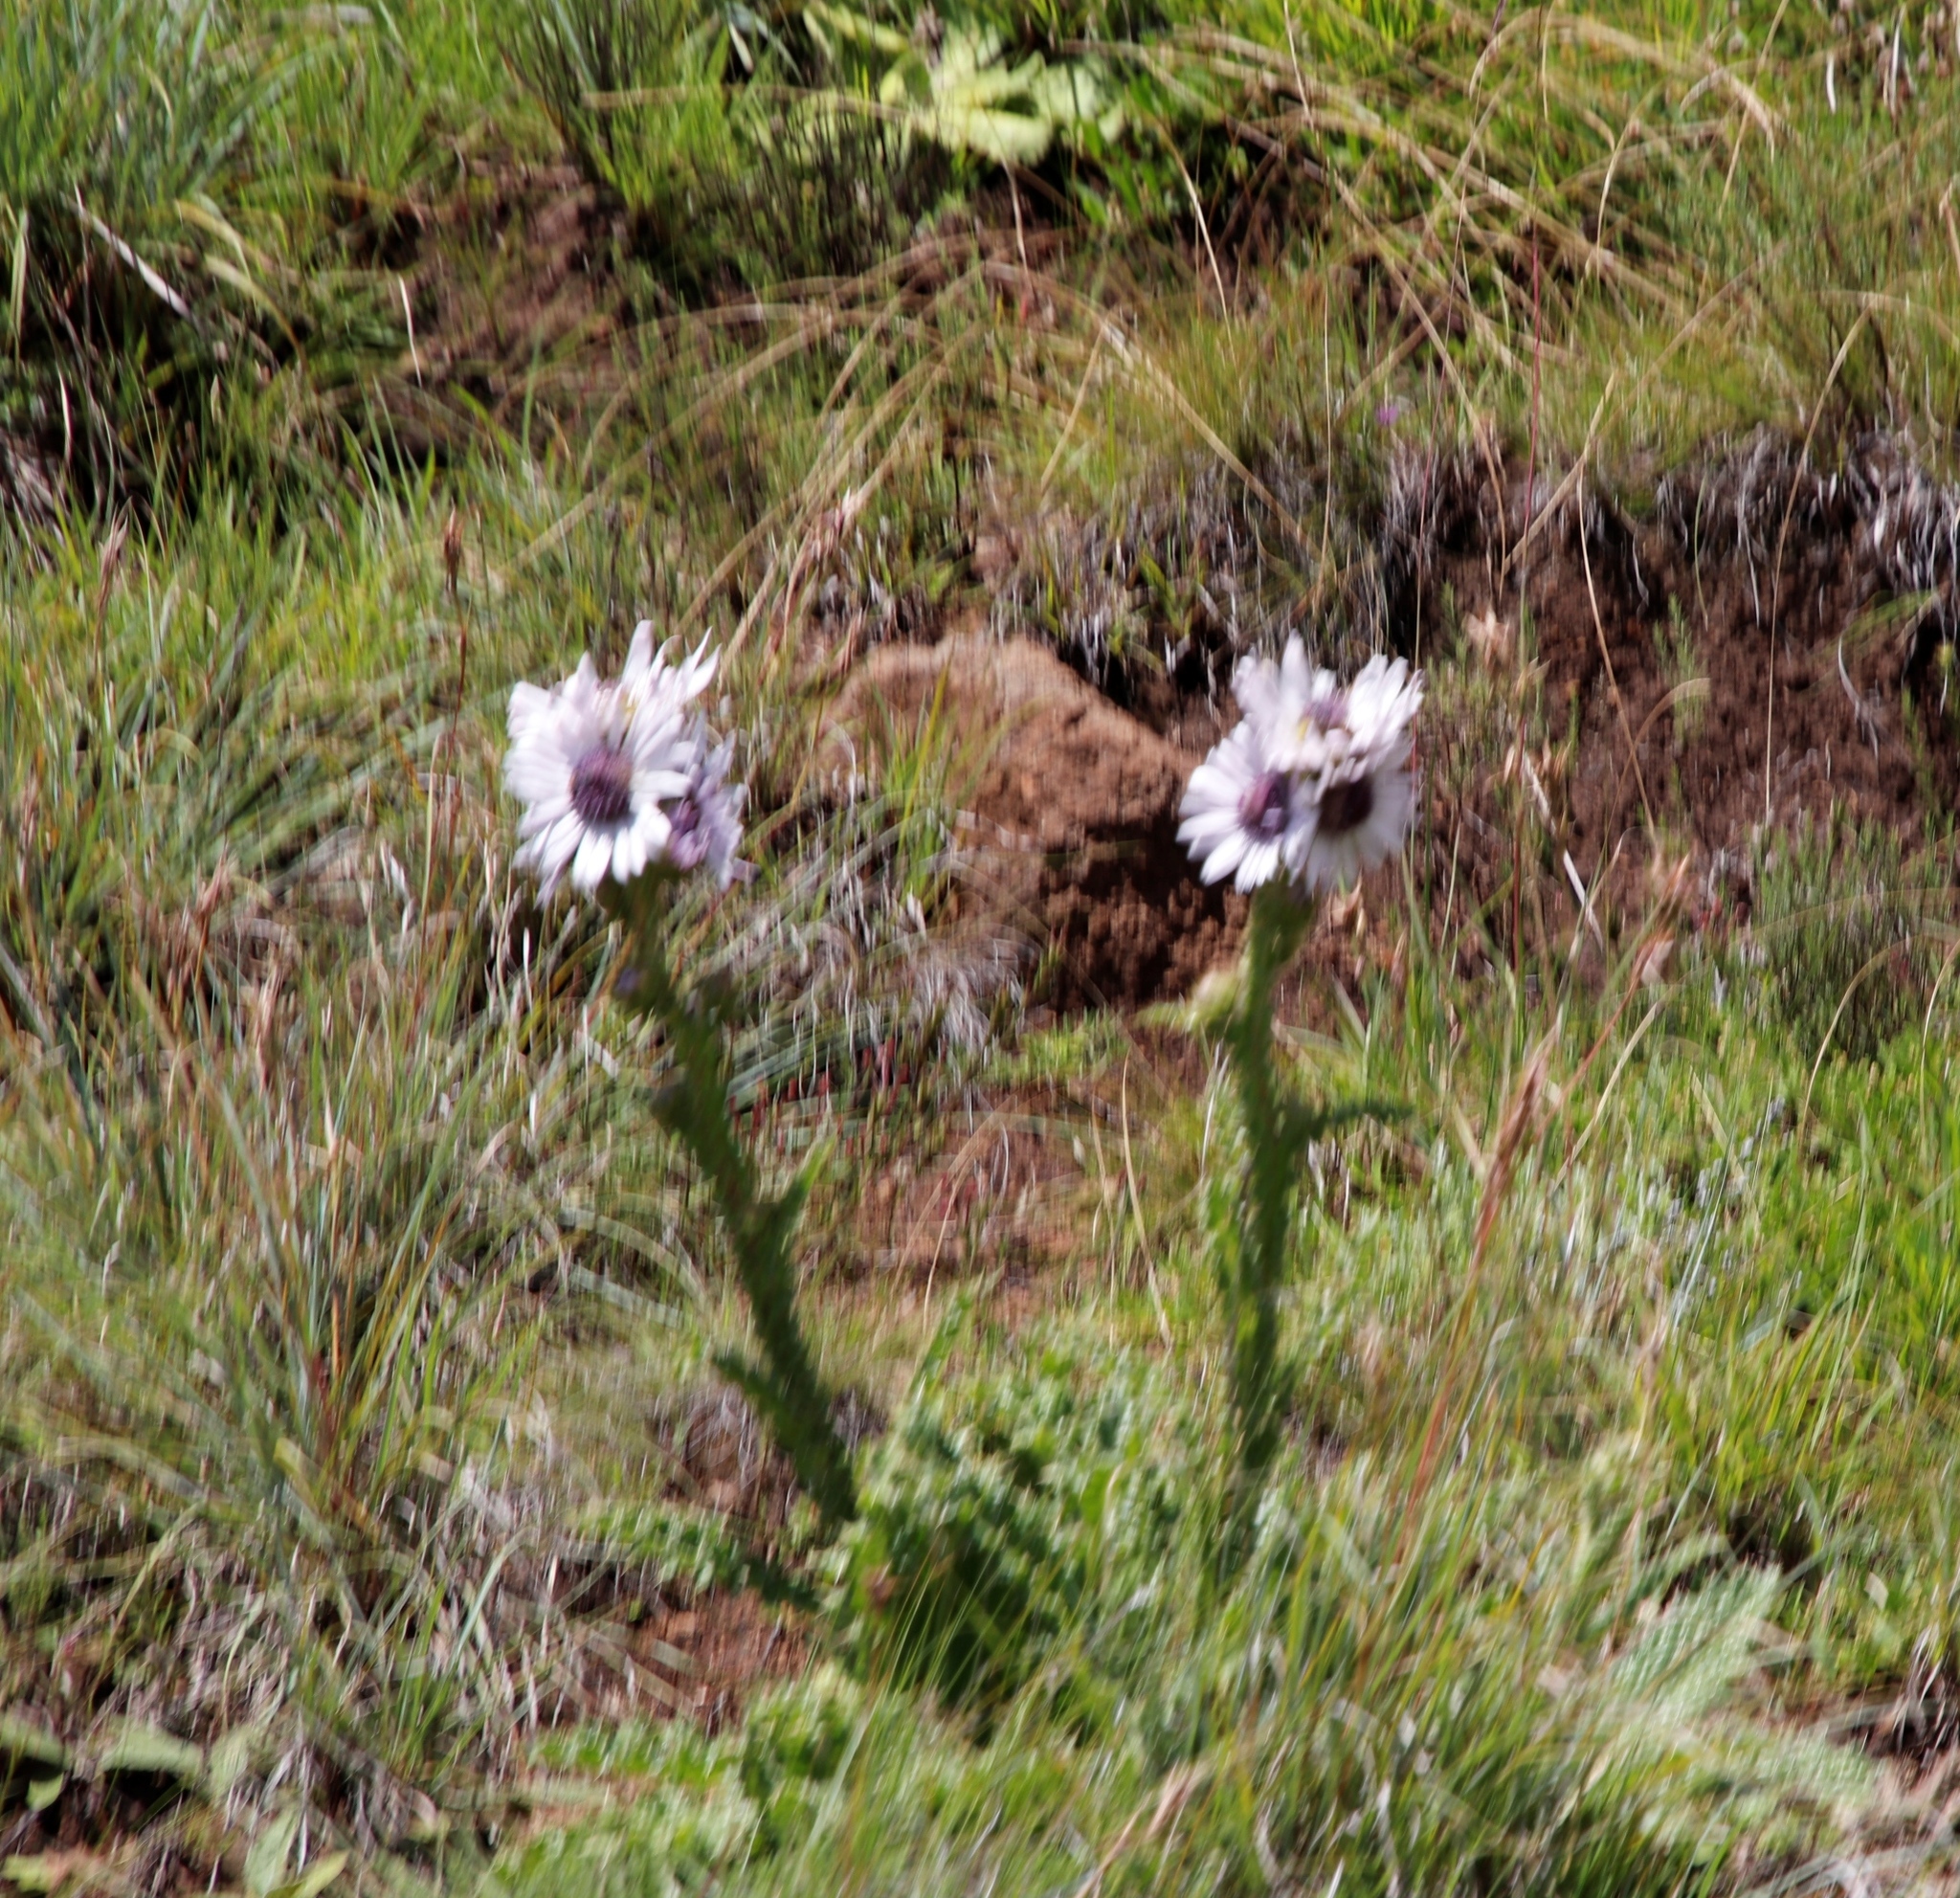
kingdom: Plantae
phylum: Tracheophyta
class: Magnoliopsida
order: Asterales
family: Asteraceae
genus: Berkheya
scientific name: Berkheya purpurea
